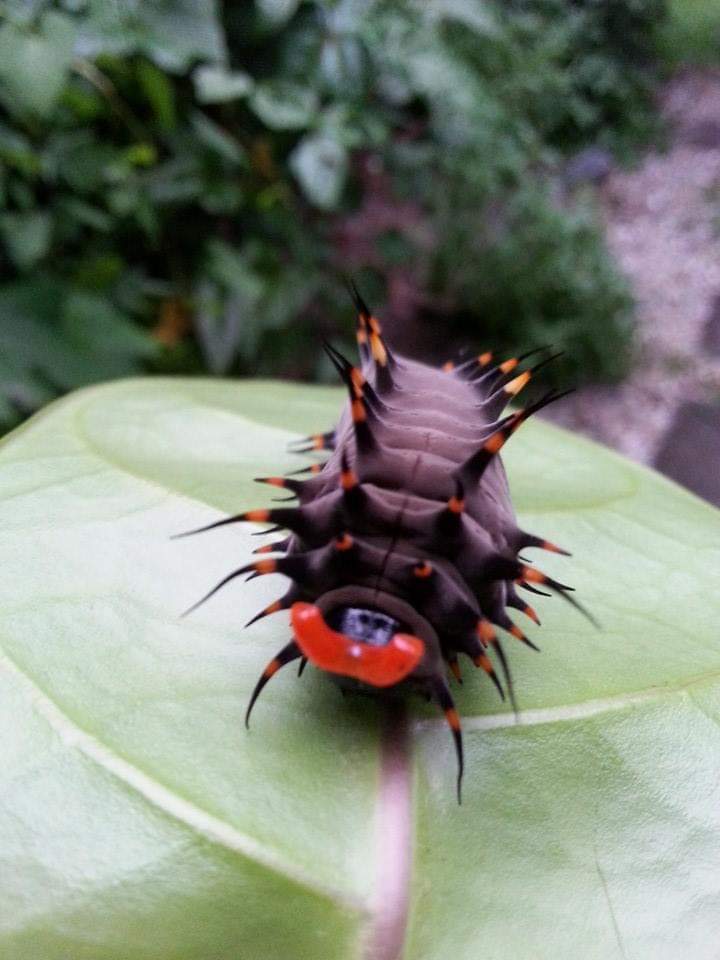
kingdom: Animalia
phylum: Arthropoda
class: Insecta
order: Lepidoptera
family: Papilionidae
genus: Ornithoptera
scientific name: Ornithoptera euphorion
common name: Cairns birdwing
